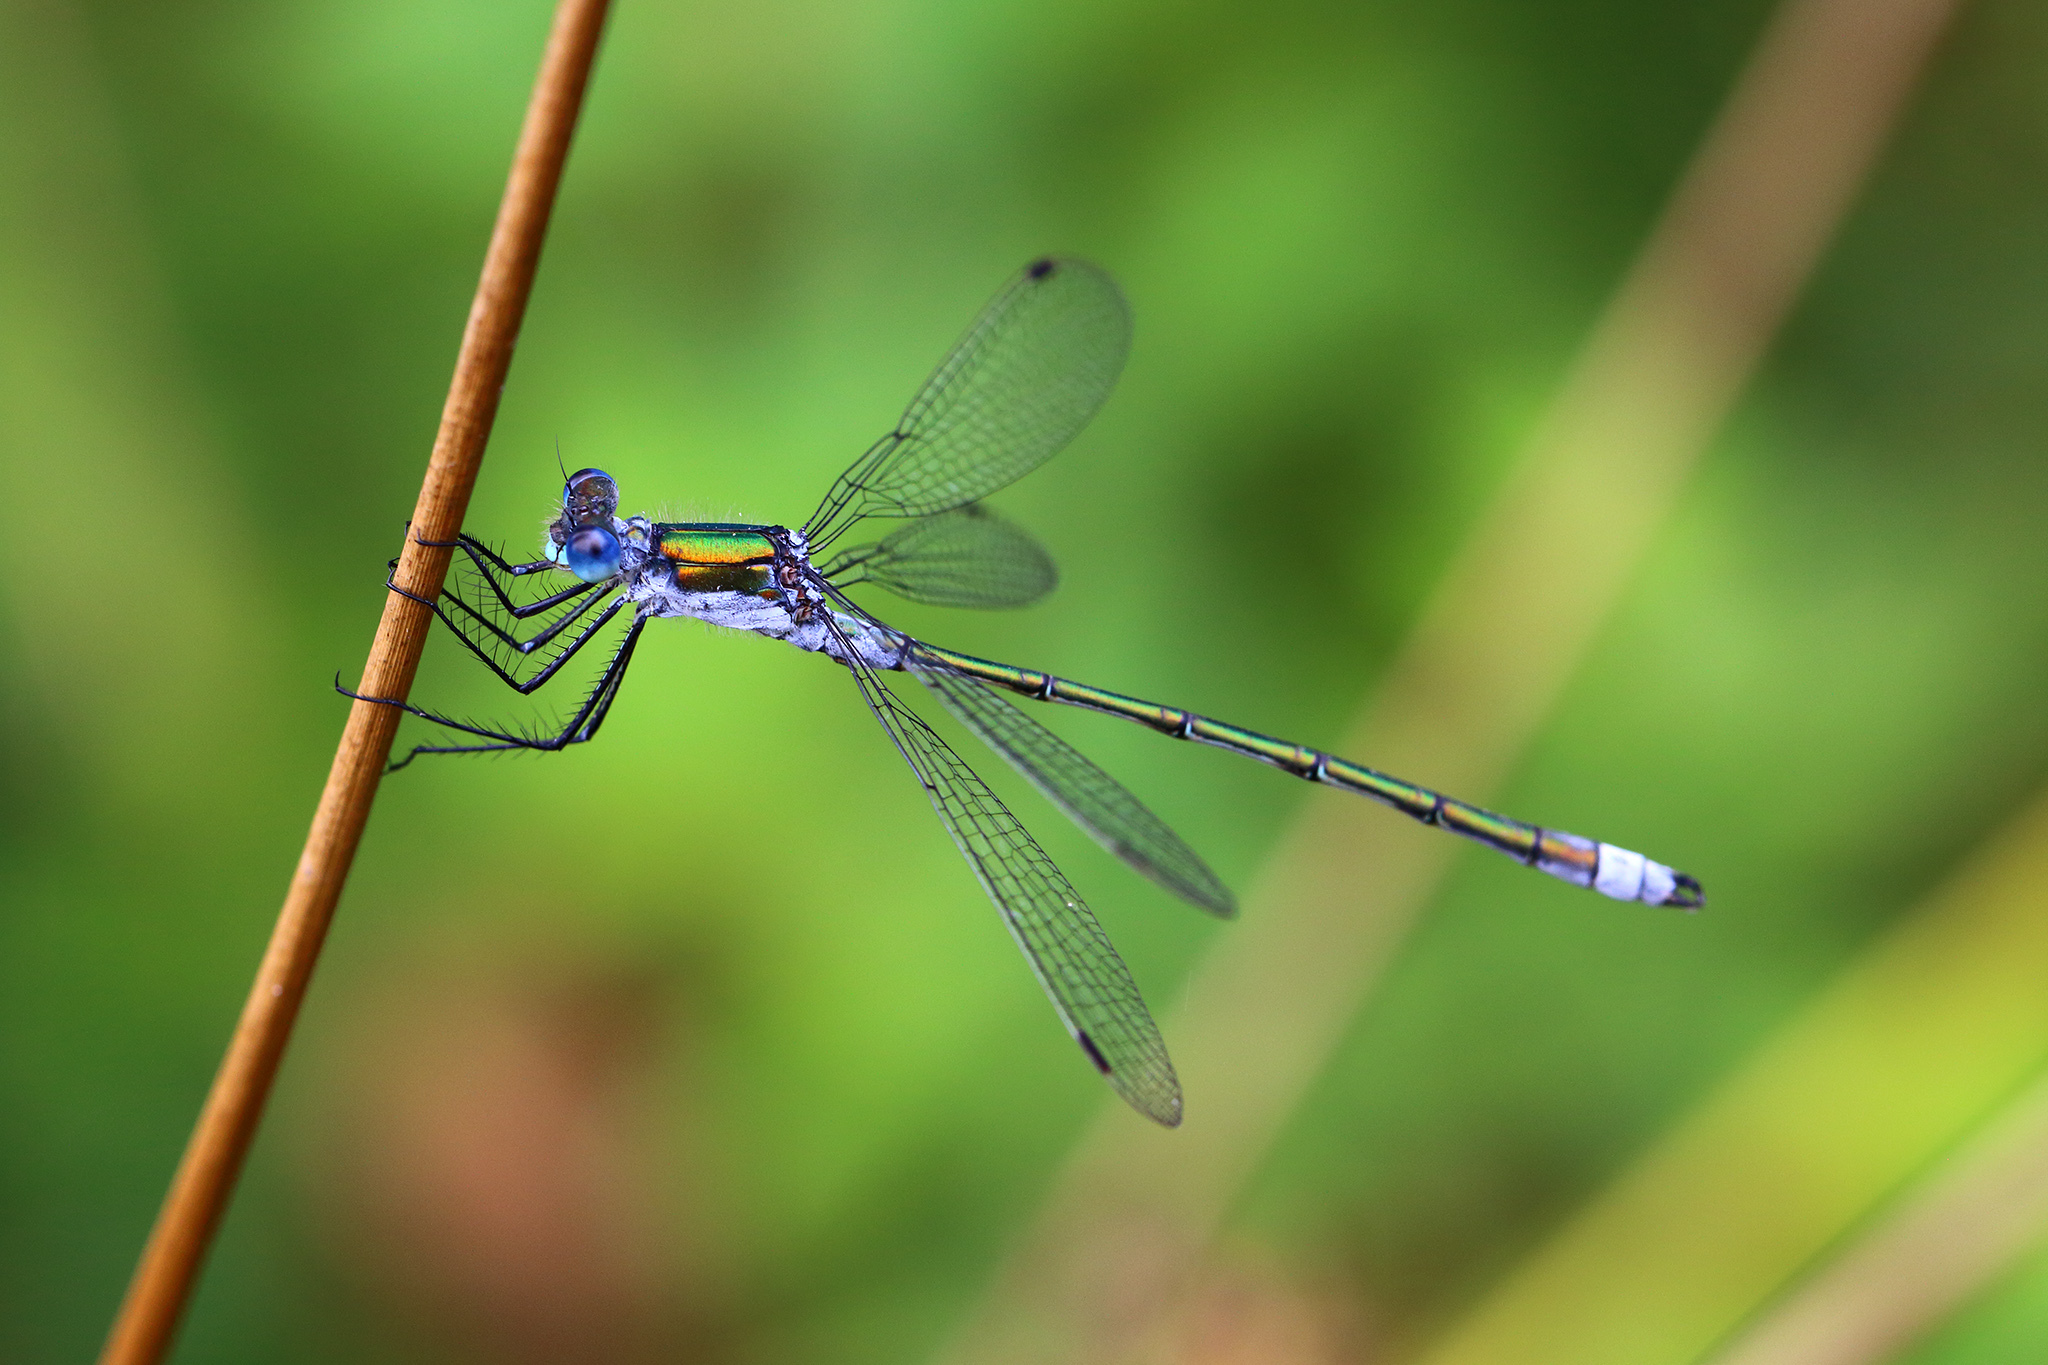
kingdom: Animalia
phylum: Arthropoda
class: Insecta
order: Odonata
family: Lestidae
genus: Lestes
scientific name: Lestes sponsa
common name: Common spreadwing
